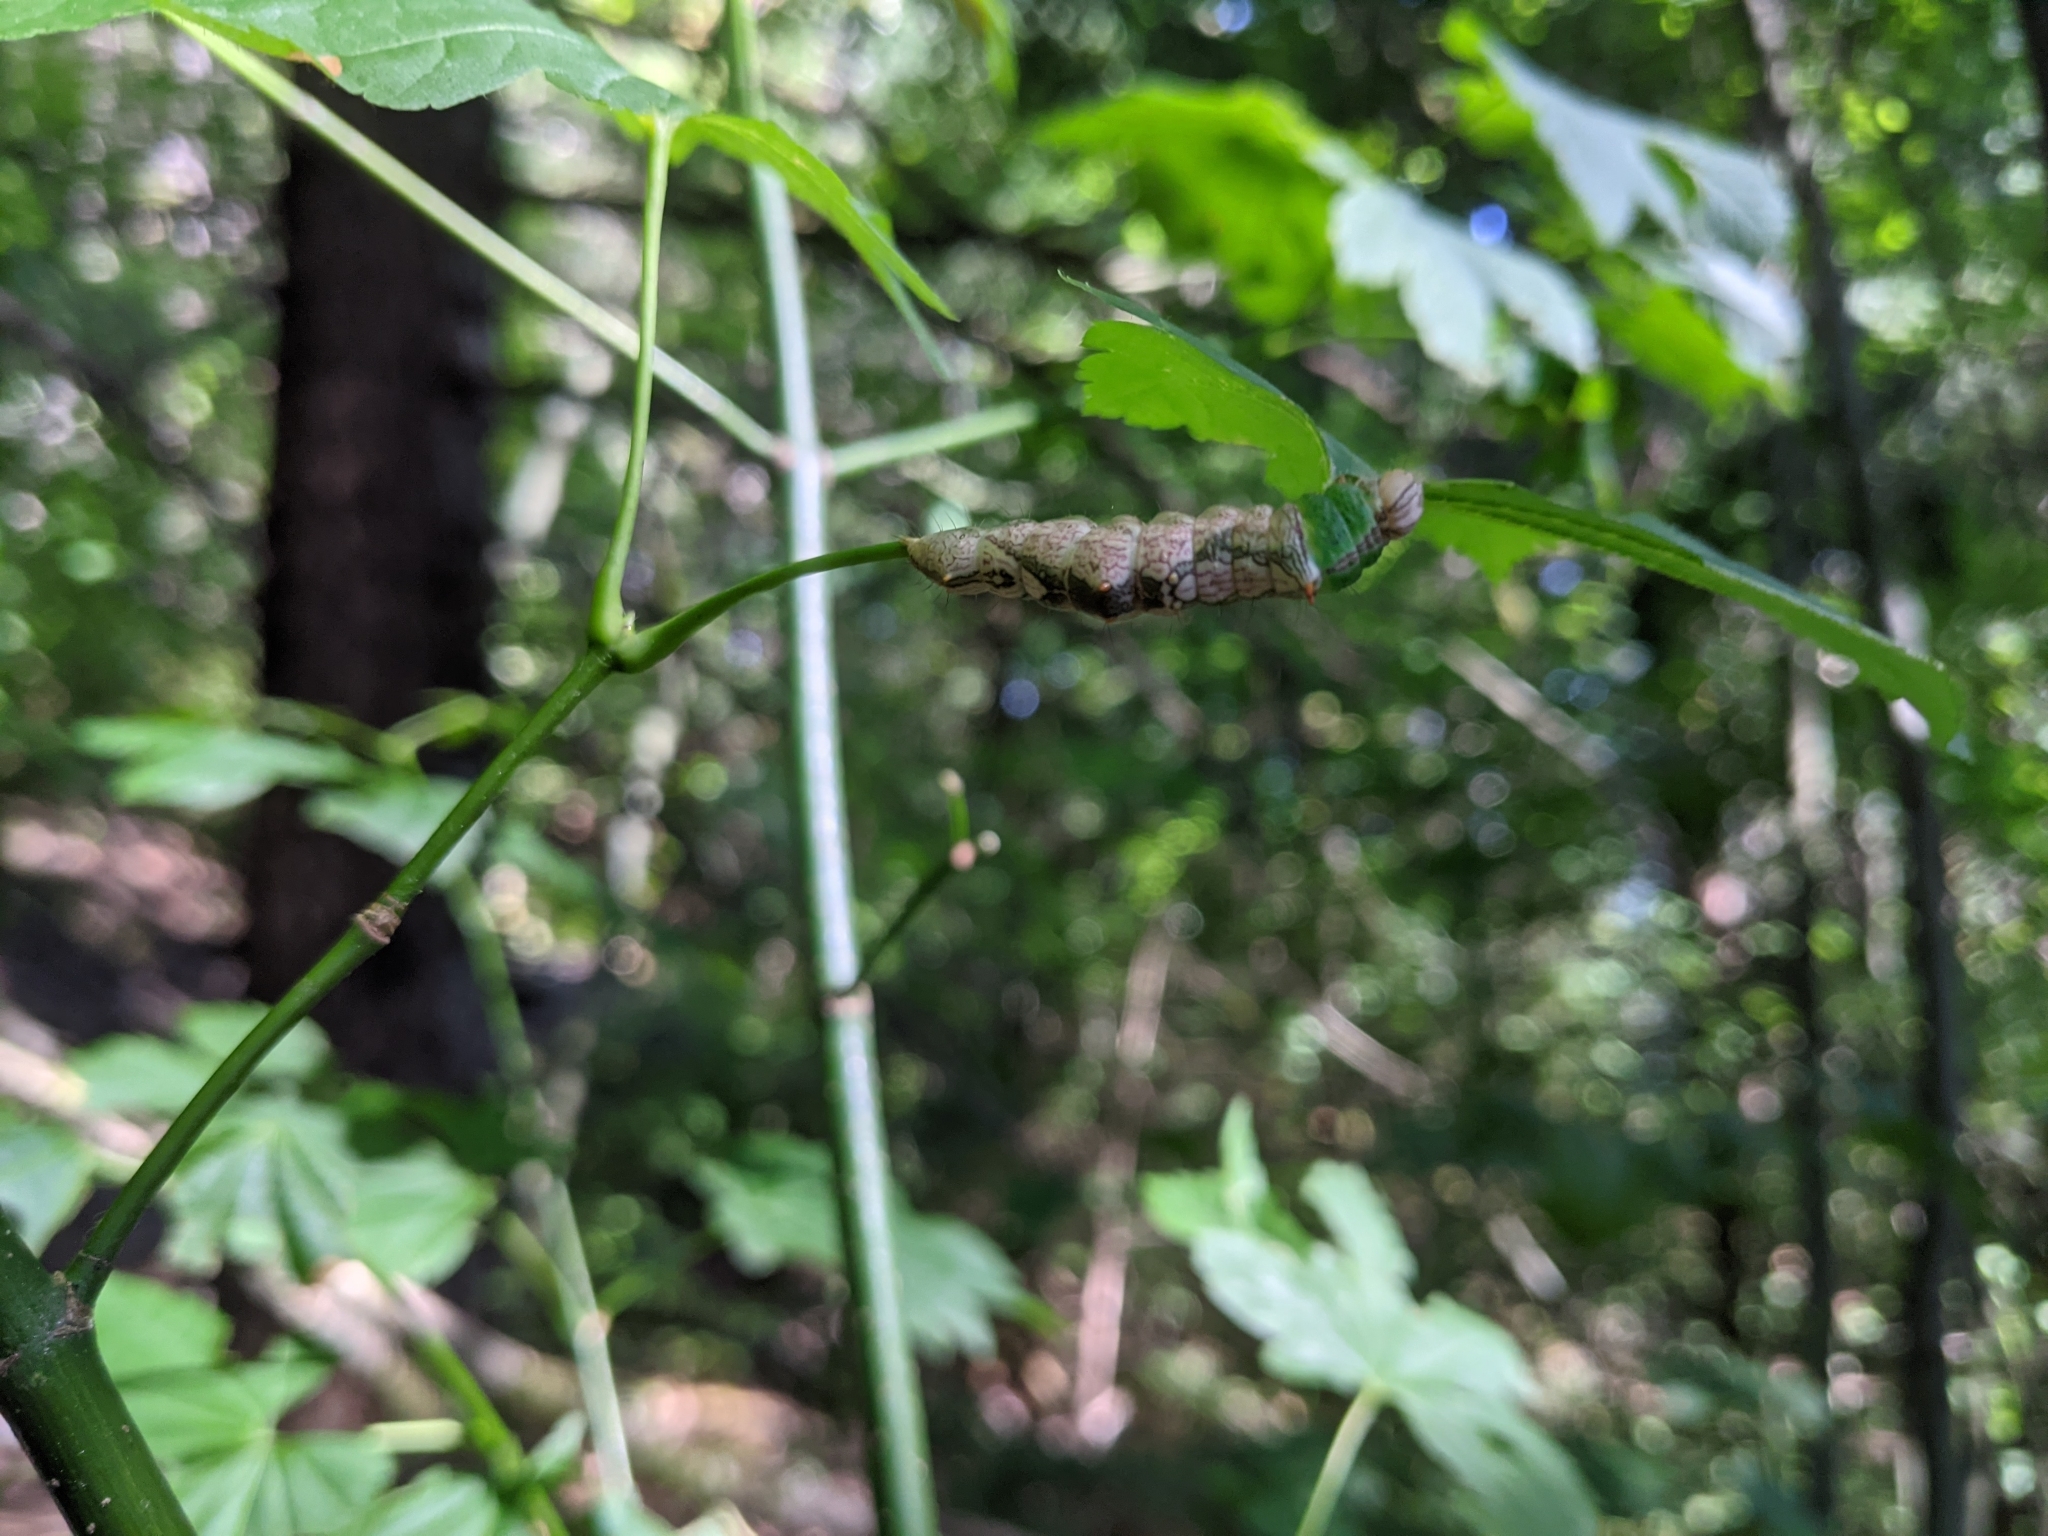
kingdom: Animalia
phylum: Arthropoda
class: Insecta
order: Lepidoptera
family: Notodontidae
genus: Schizura
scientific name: Schizura ipomaeae
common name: Morning-glory prominent
